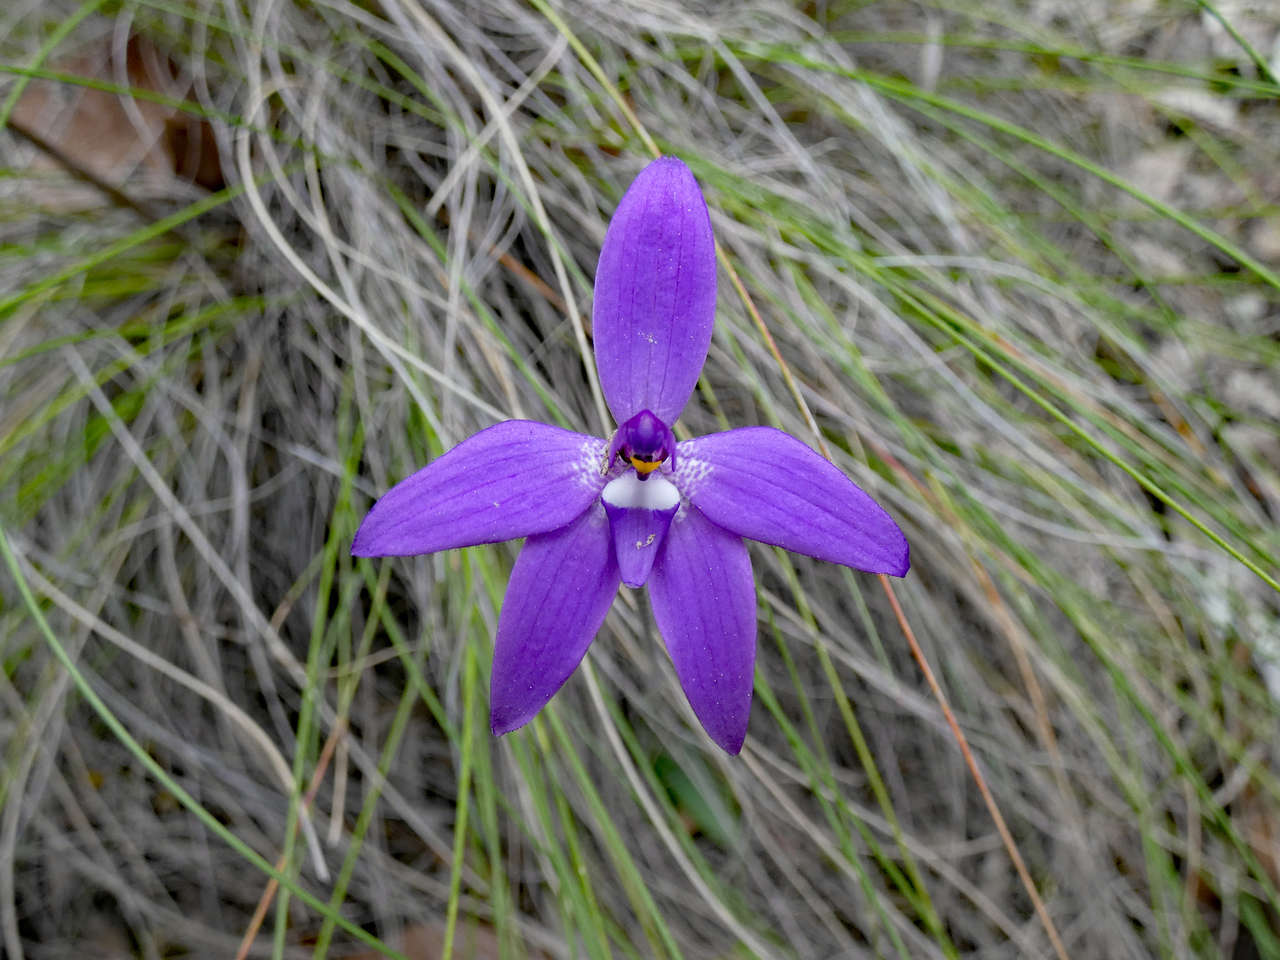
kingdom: Plantae
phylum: Tracheophyta
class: Liliopsida
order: Asparagales
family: Orchidaceae
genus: Caladenia
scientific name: Caladenia major
